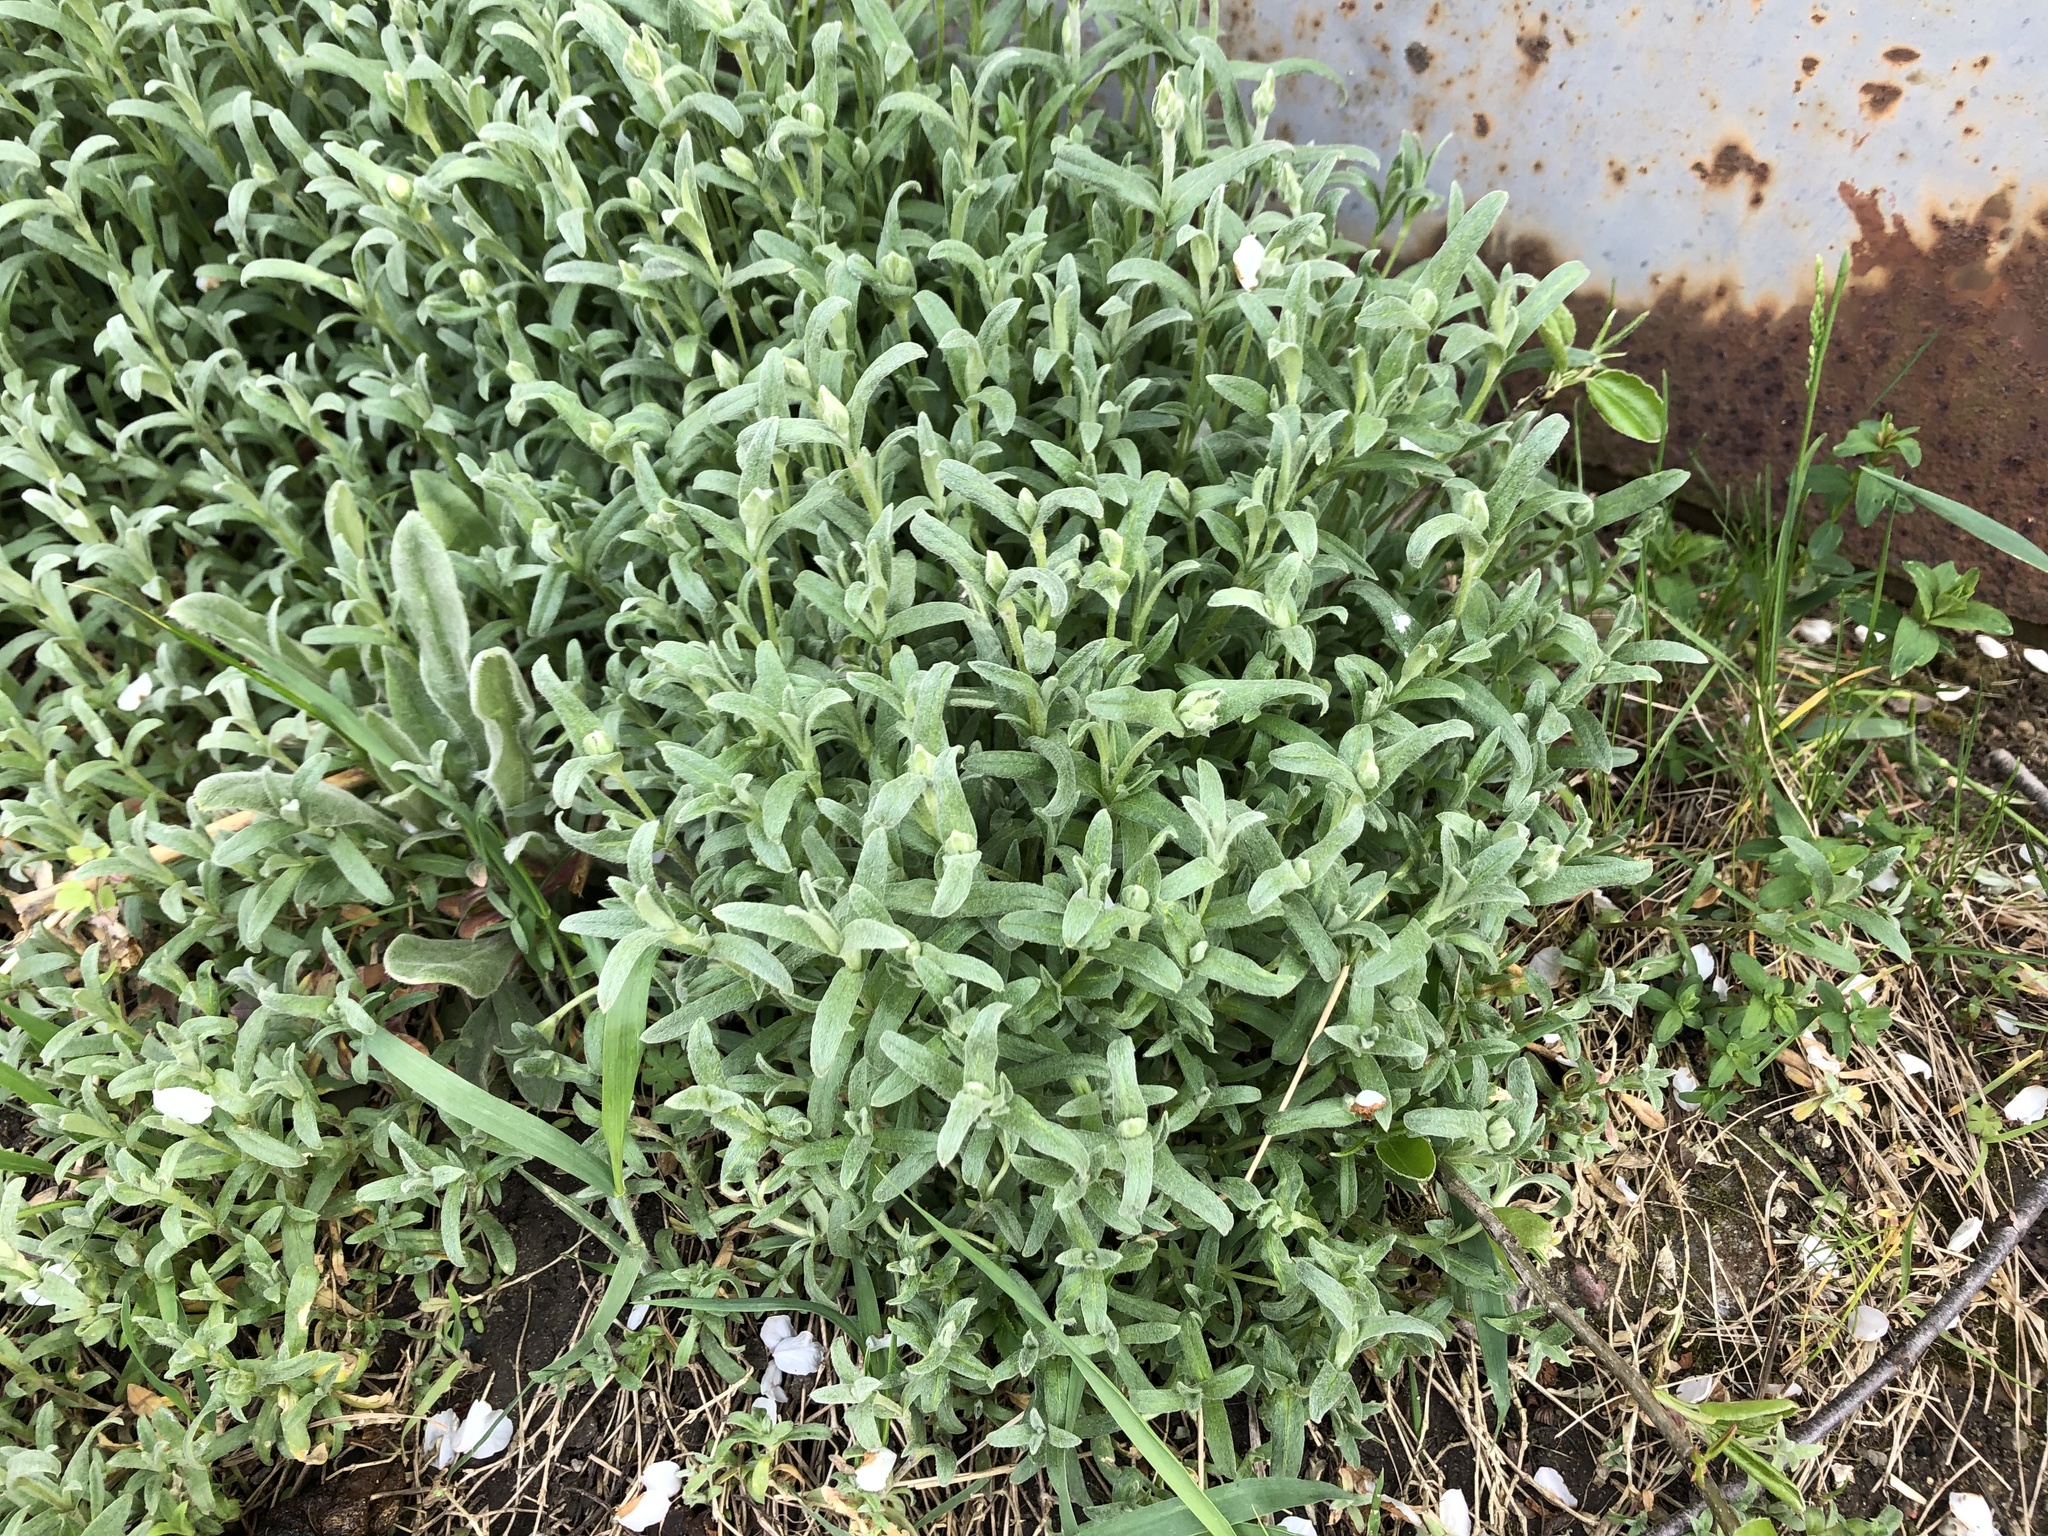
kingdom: Plantae
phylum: Tracheophyta
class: Magnoliopsida
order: Caryophyllales
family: Caryophyllaceae
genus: Cerastium
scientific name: Cerastium tomentosum
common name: Snow-in-summer
